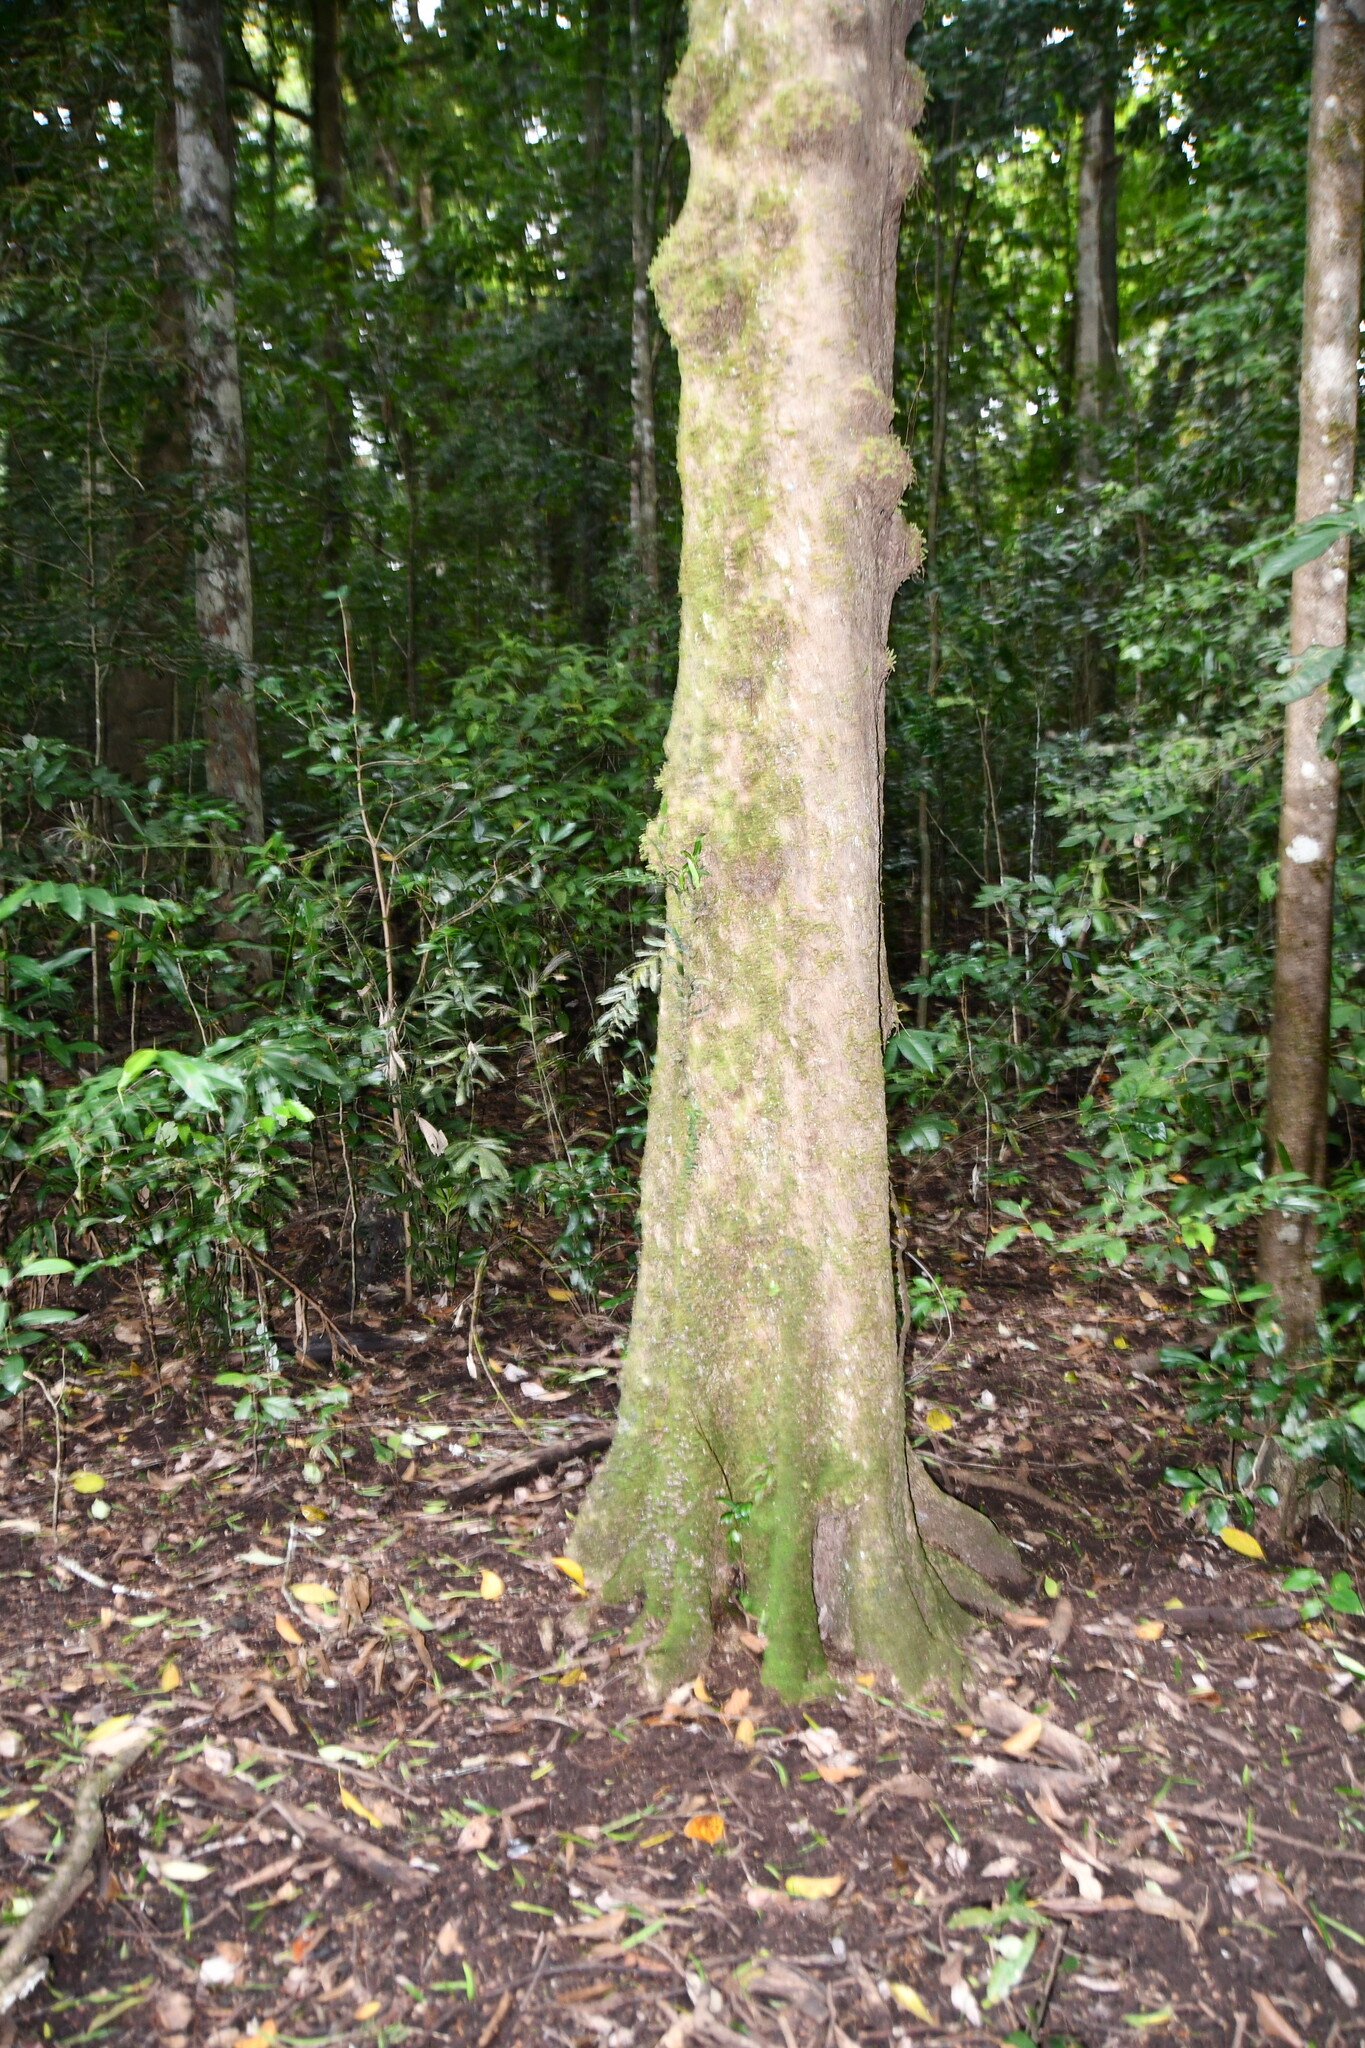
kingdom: Plantae
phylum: Tracheophyta
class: Magnoliopsida
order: Sapindales
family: Meliaceae
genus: Epicharis
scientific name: Epicharis parasitica
